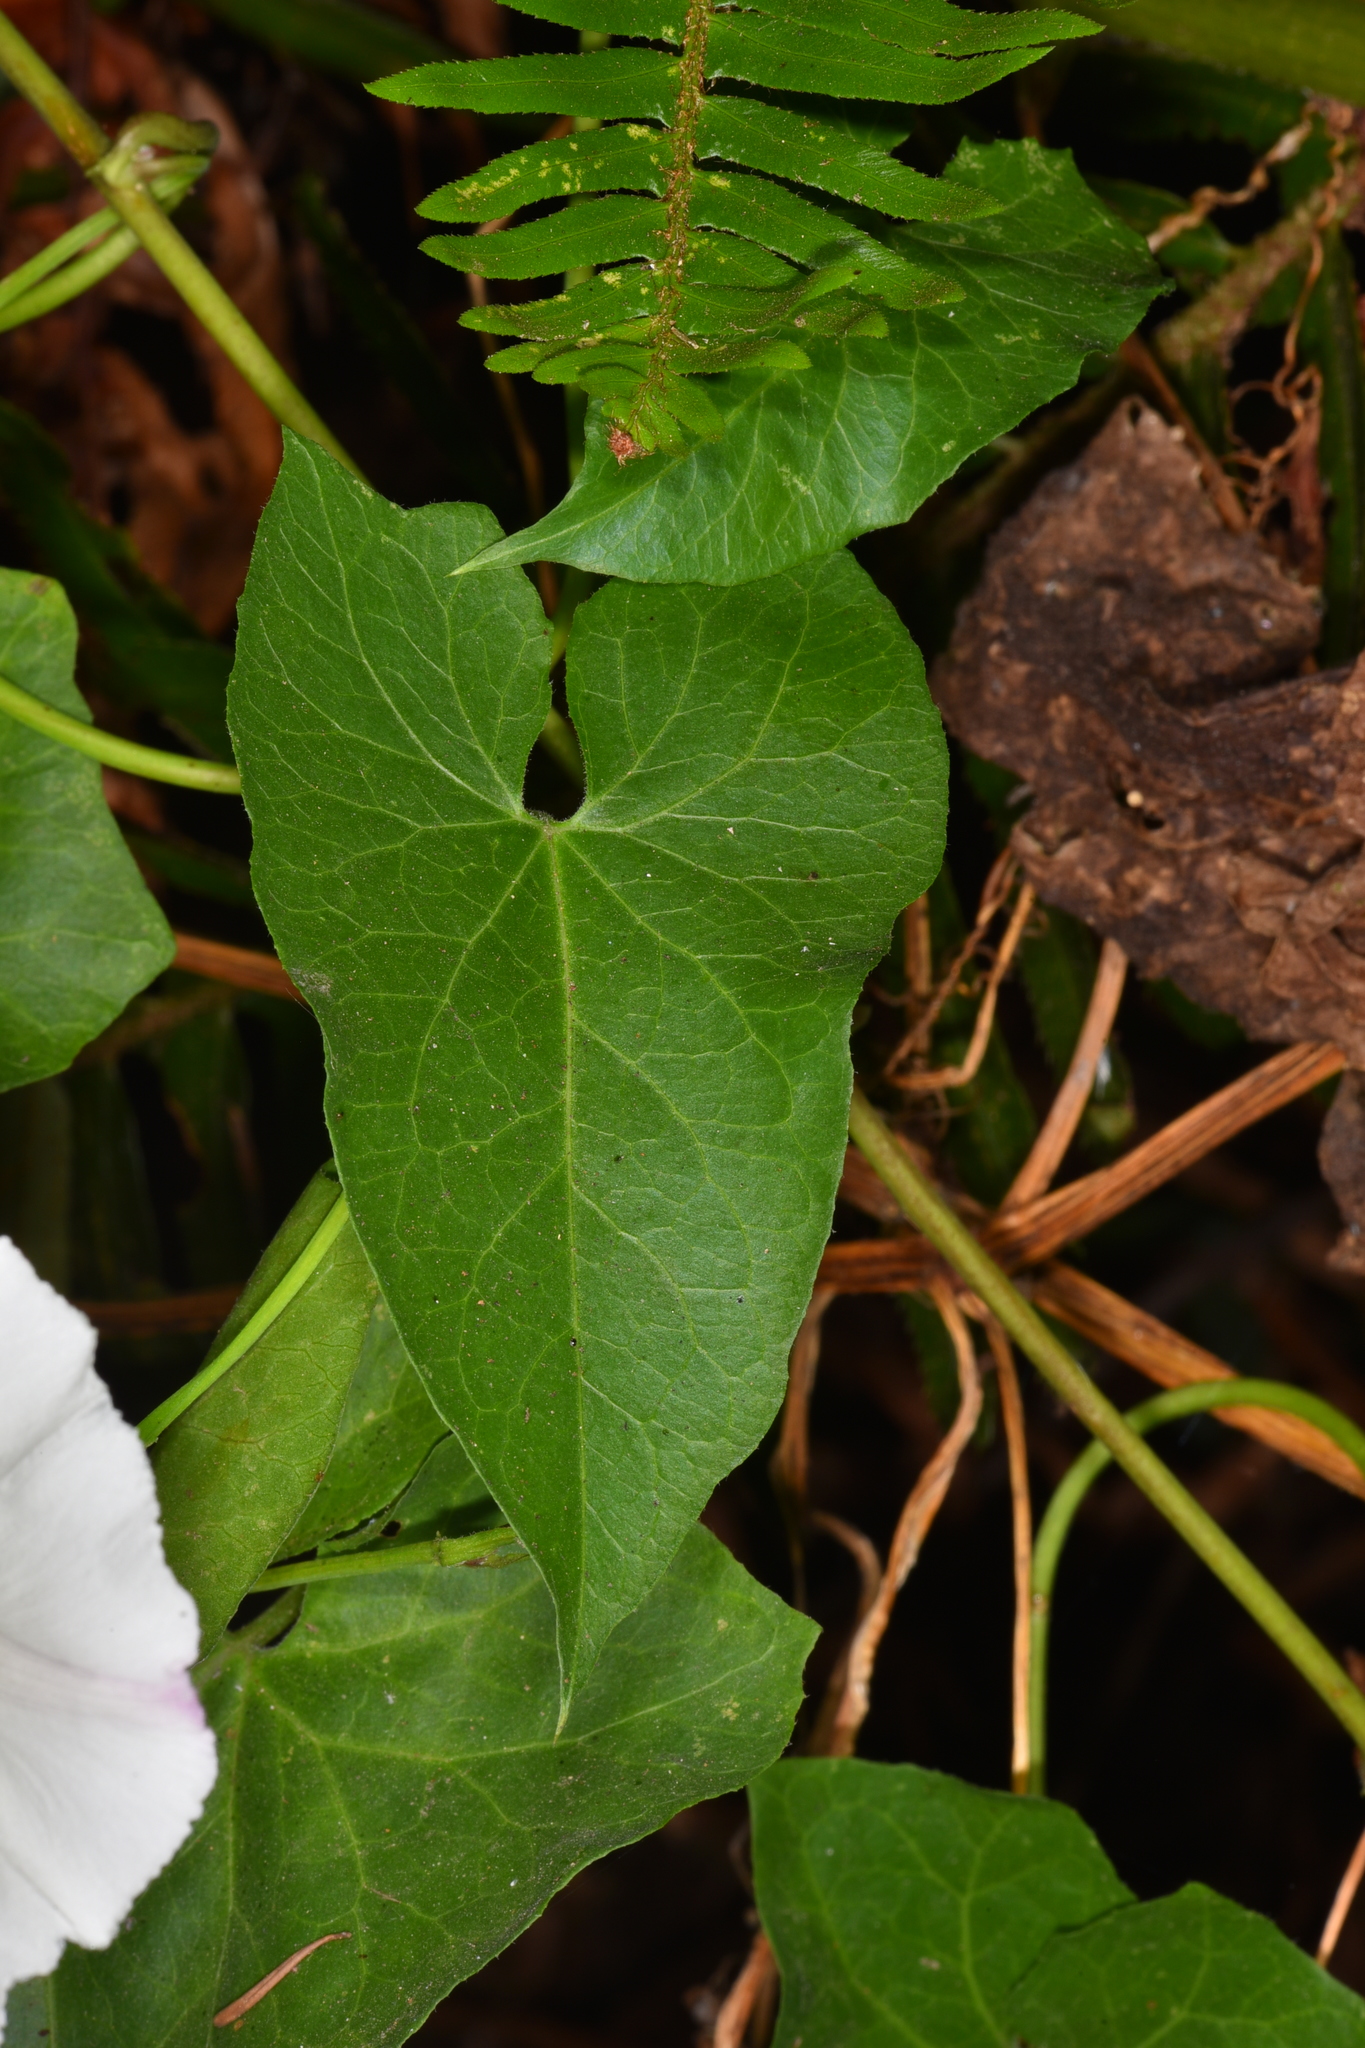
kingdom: Plantae
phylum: Tracheophyta
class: Magnoliopsida
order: Solanales
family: Convolvulaceae
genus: Calystegia
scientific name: Calystegia purpurata
